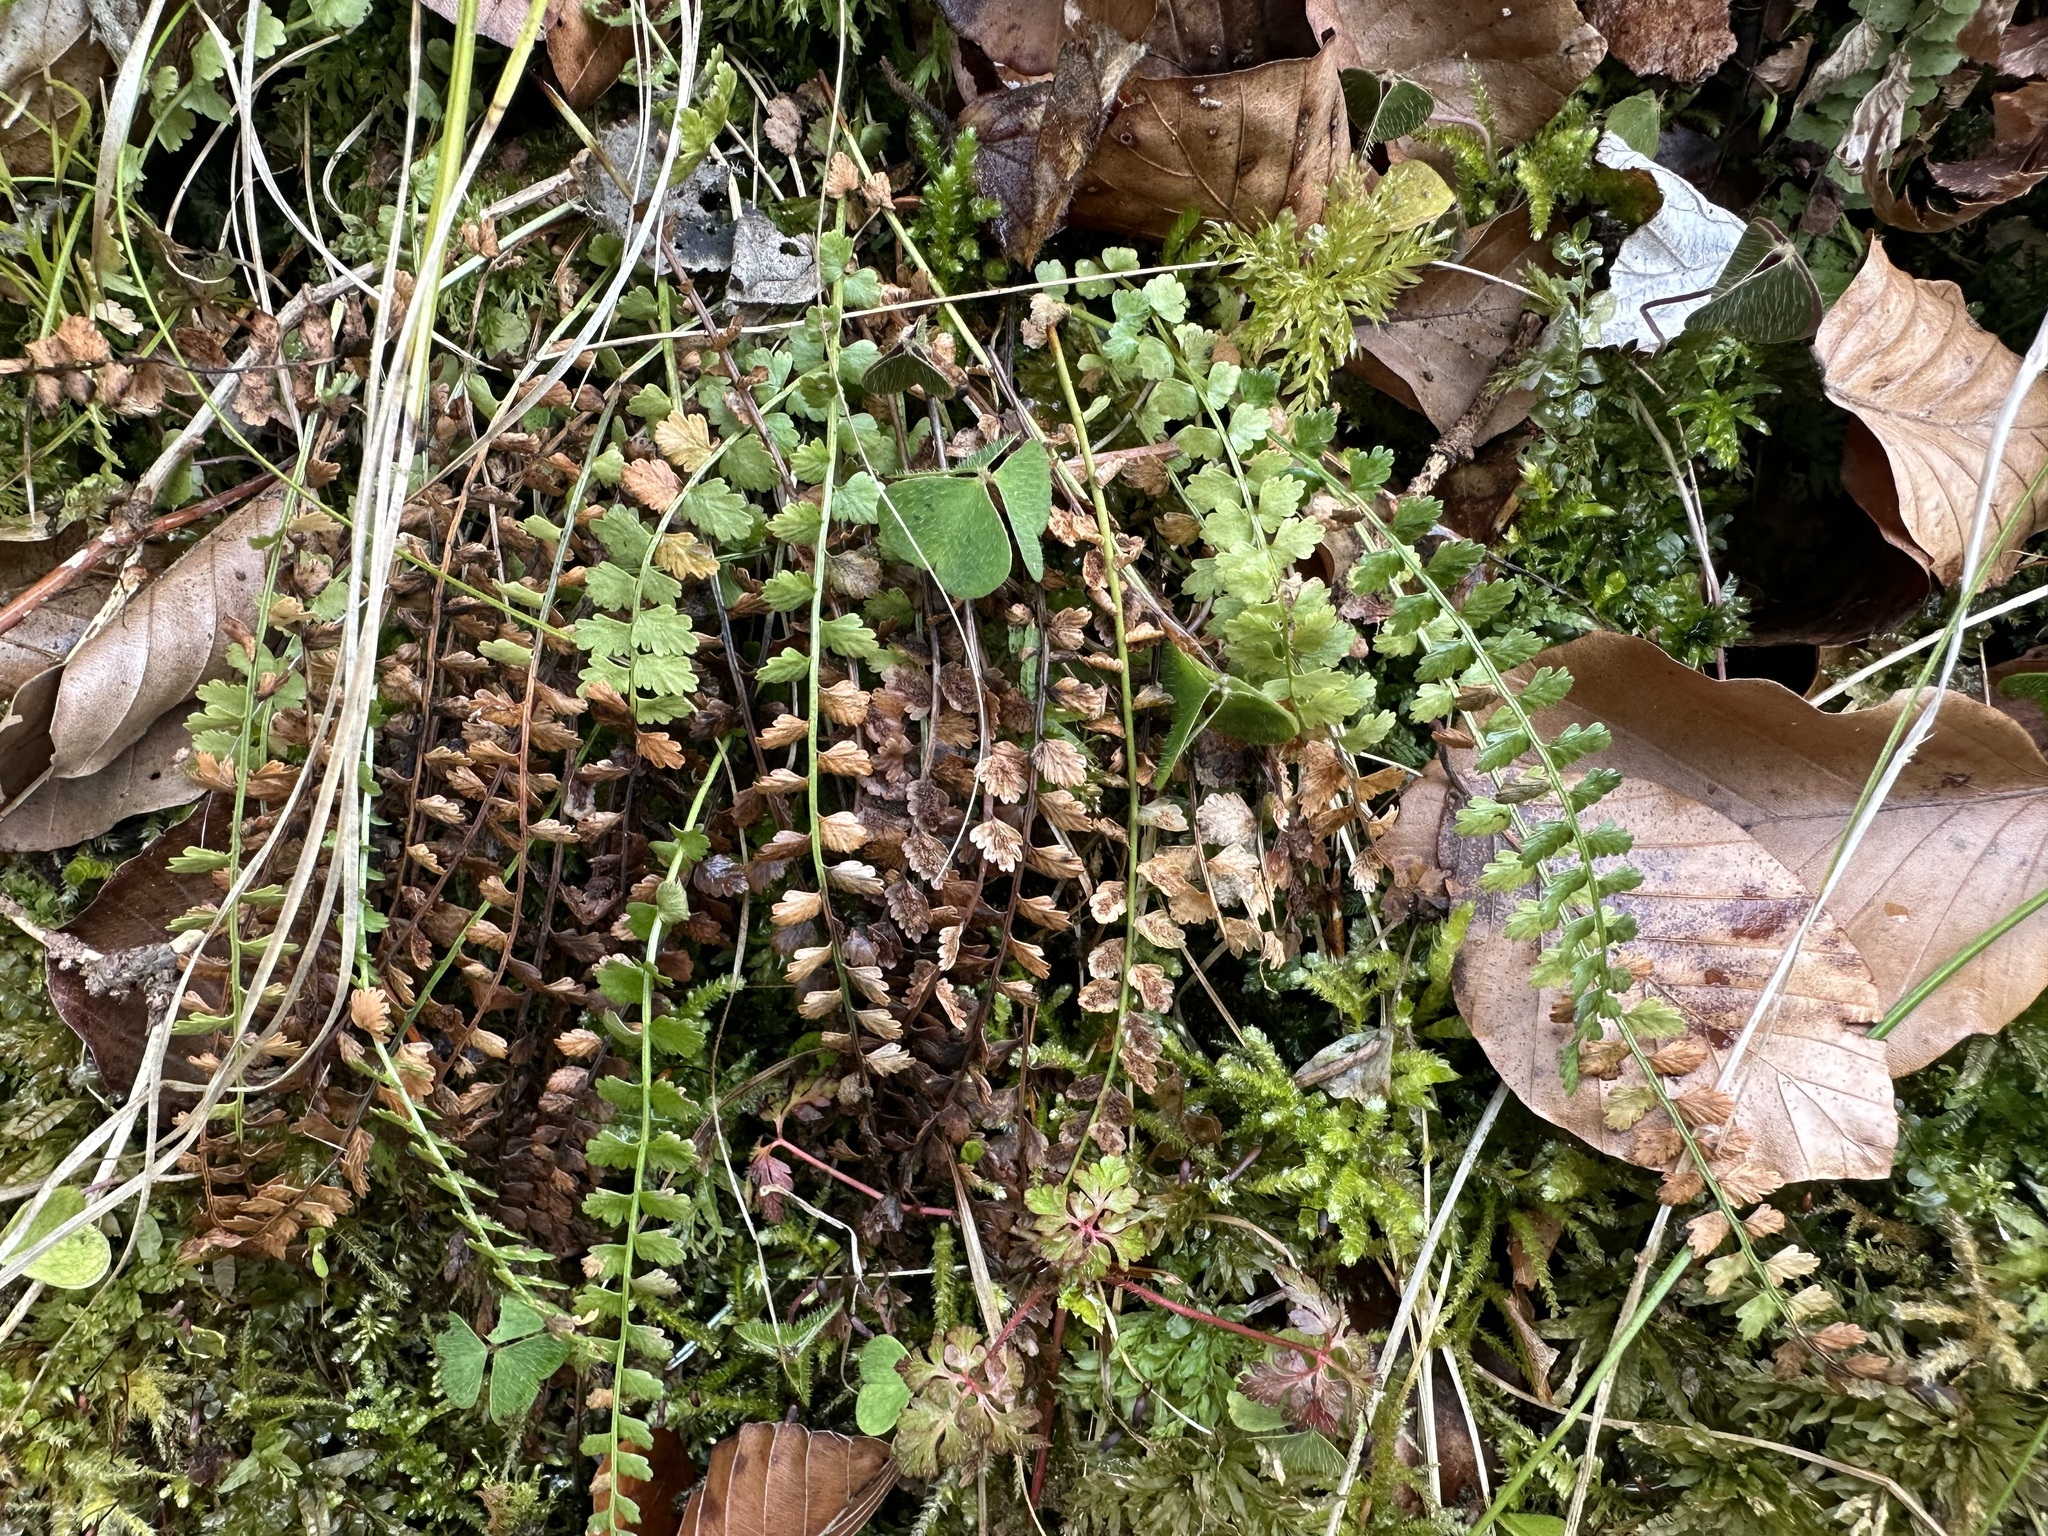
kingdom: Plantae
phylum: Tracheophyta
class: Polypodiopsida
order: Polypodiales
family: Aspleniaceae
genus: Asplenium
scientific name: Asplenium viride
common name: Green spleenwort
